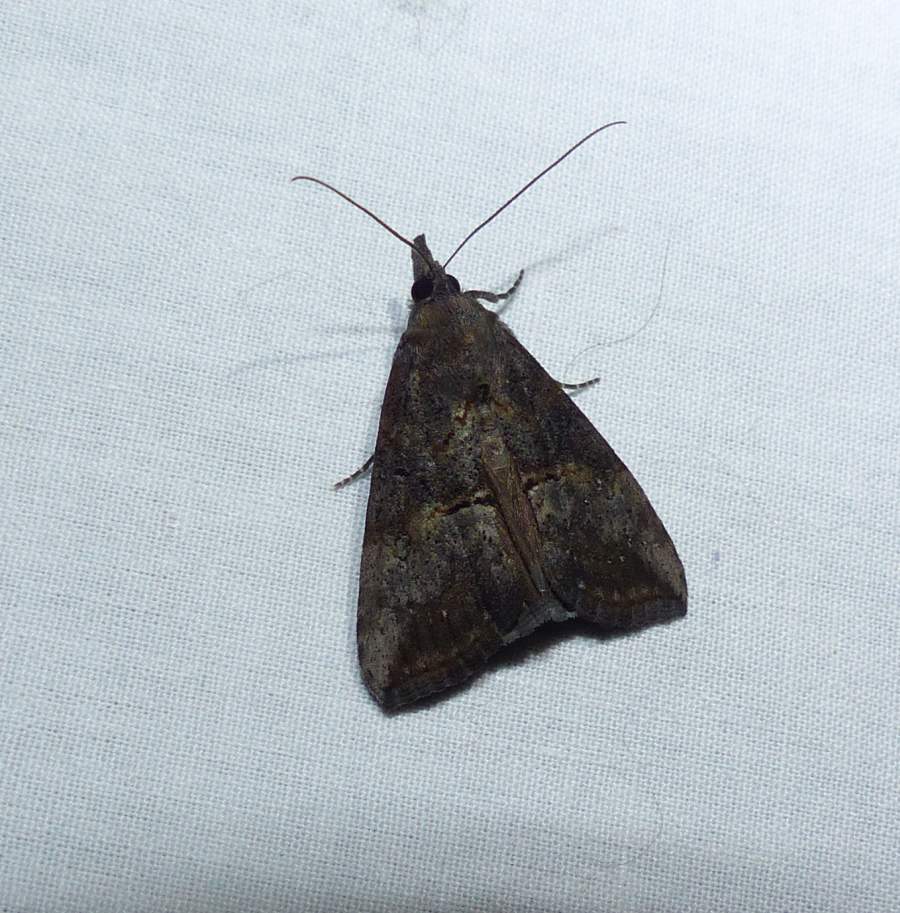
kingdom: Animalia
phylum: Arthropoda
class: Insecta
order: Lepidoptera
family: Erebidae
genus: Hypena
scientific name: Hypena scabra
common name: Green cloverworm
